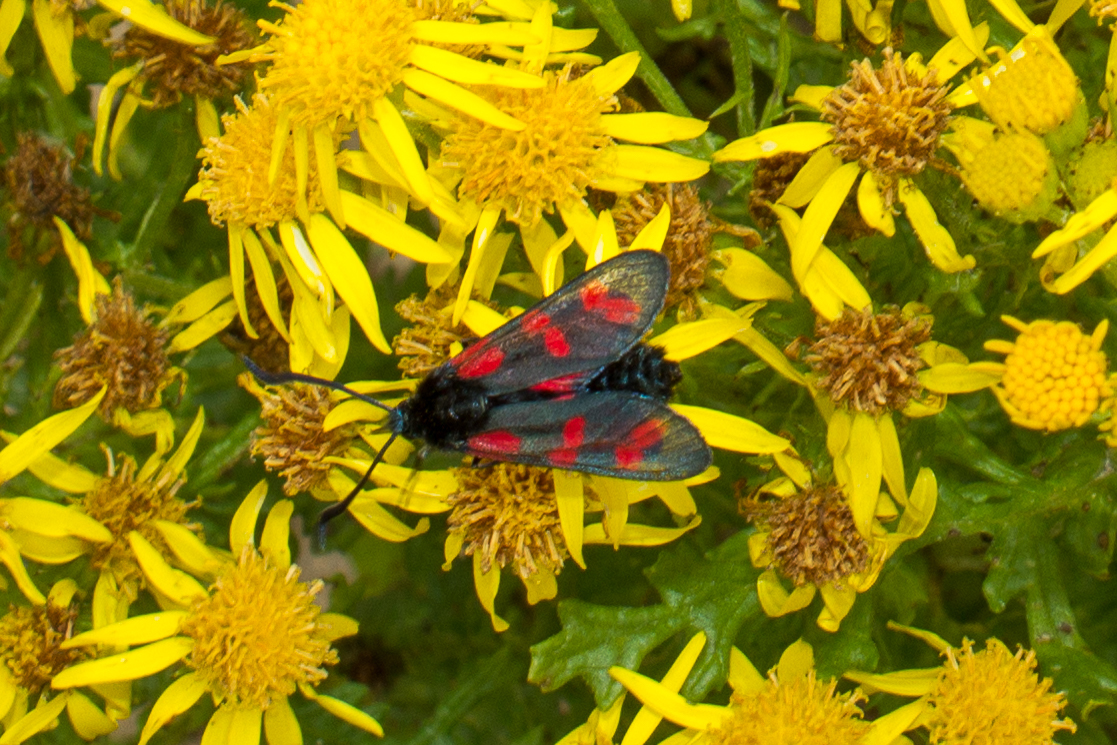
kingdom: Animalia
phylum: Arthropoda
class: Insecta
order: Lepidoptera
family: Zygaenidae
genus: Zygaena
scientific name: Zygaena filipendulae
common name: Six-spot burnet
